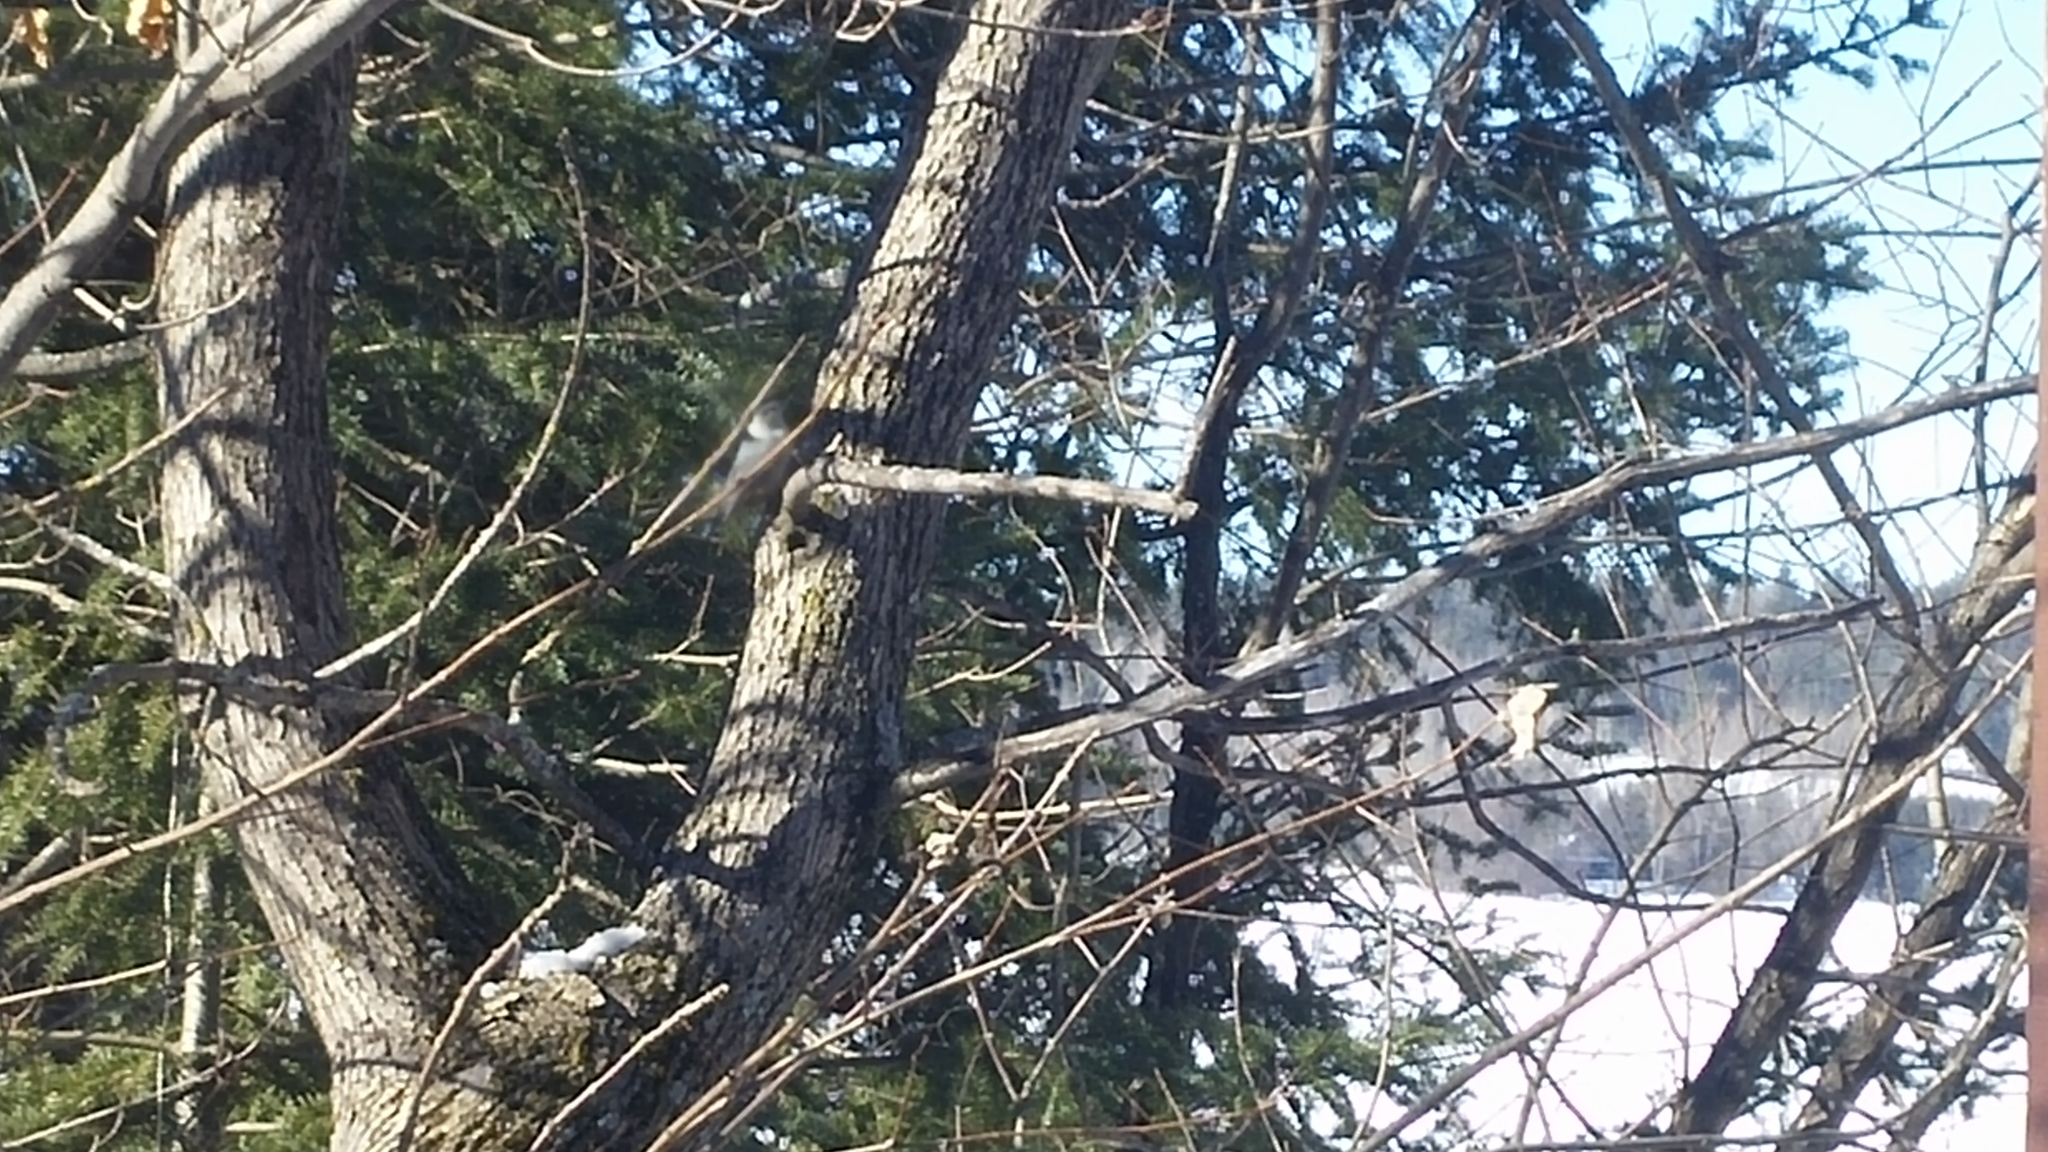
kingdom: Animalia
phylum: Chordata
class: Aves
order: Passeriformes
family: Sittidae
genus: Sitta
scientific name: Sitta carolinensis
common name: White-breasted nuthatch
